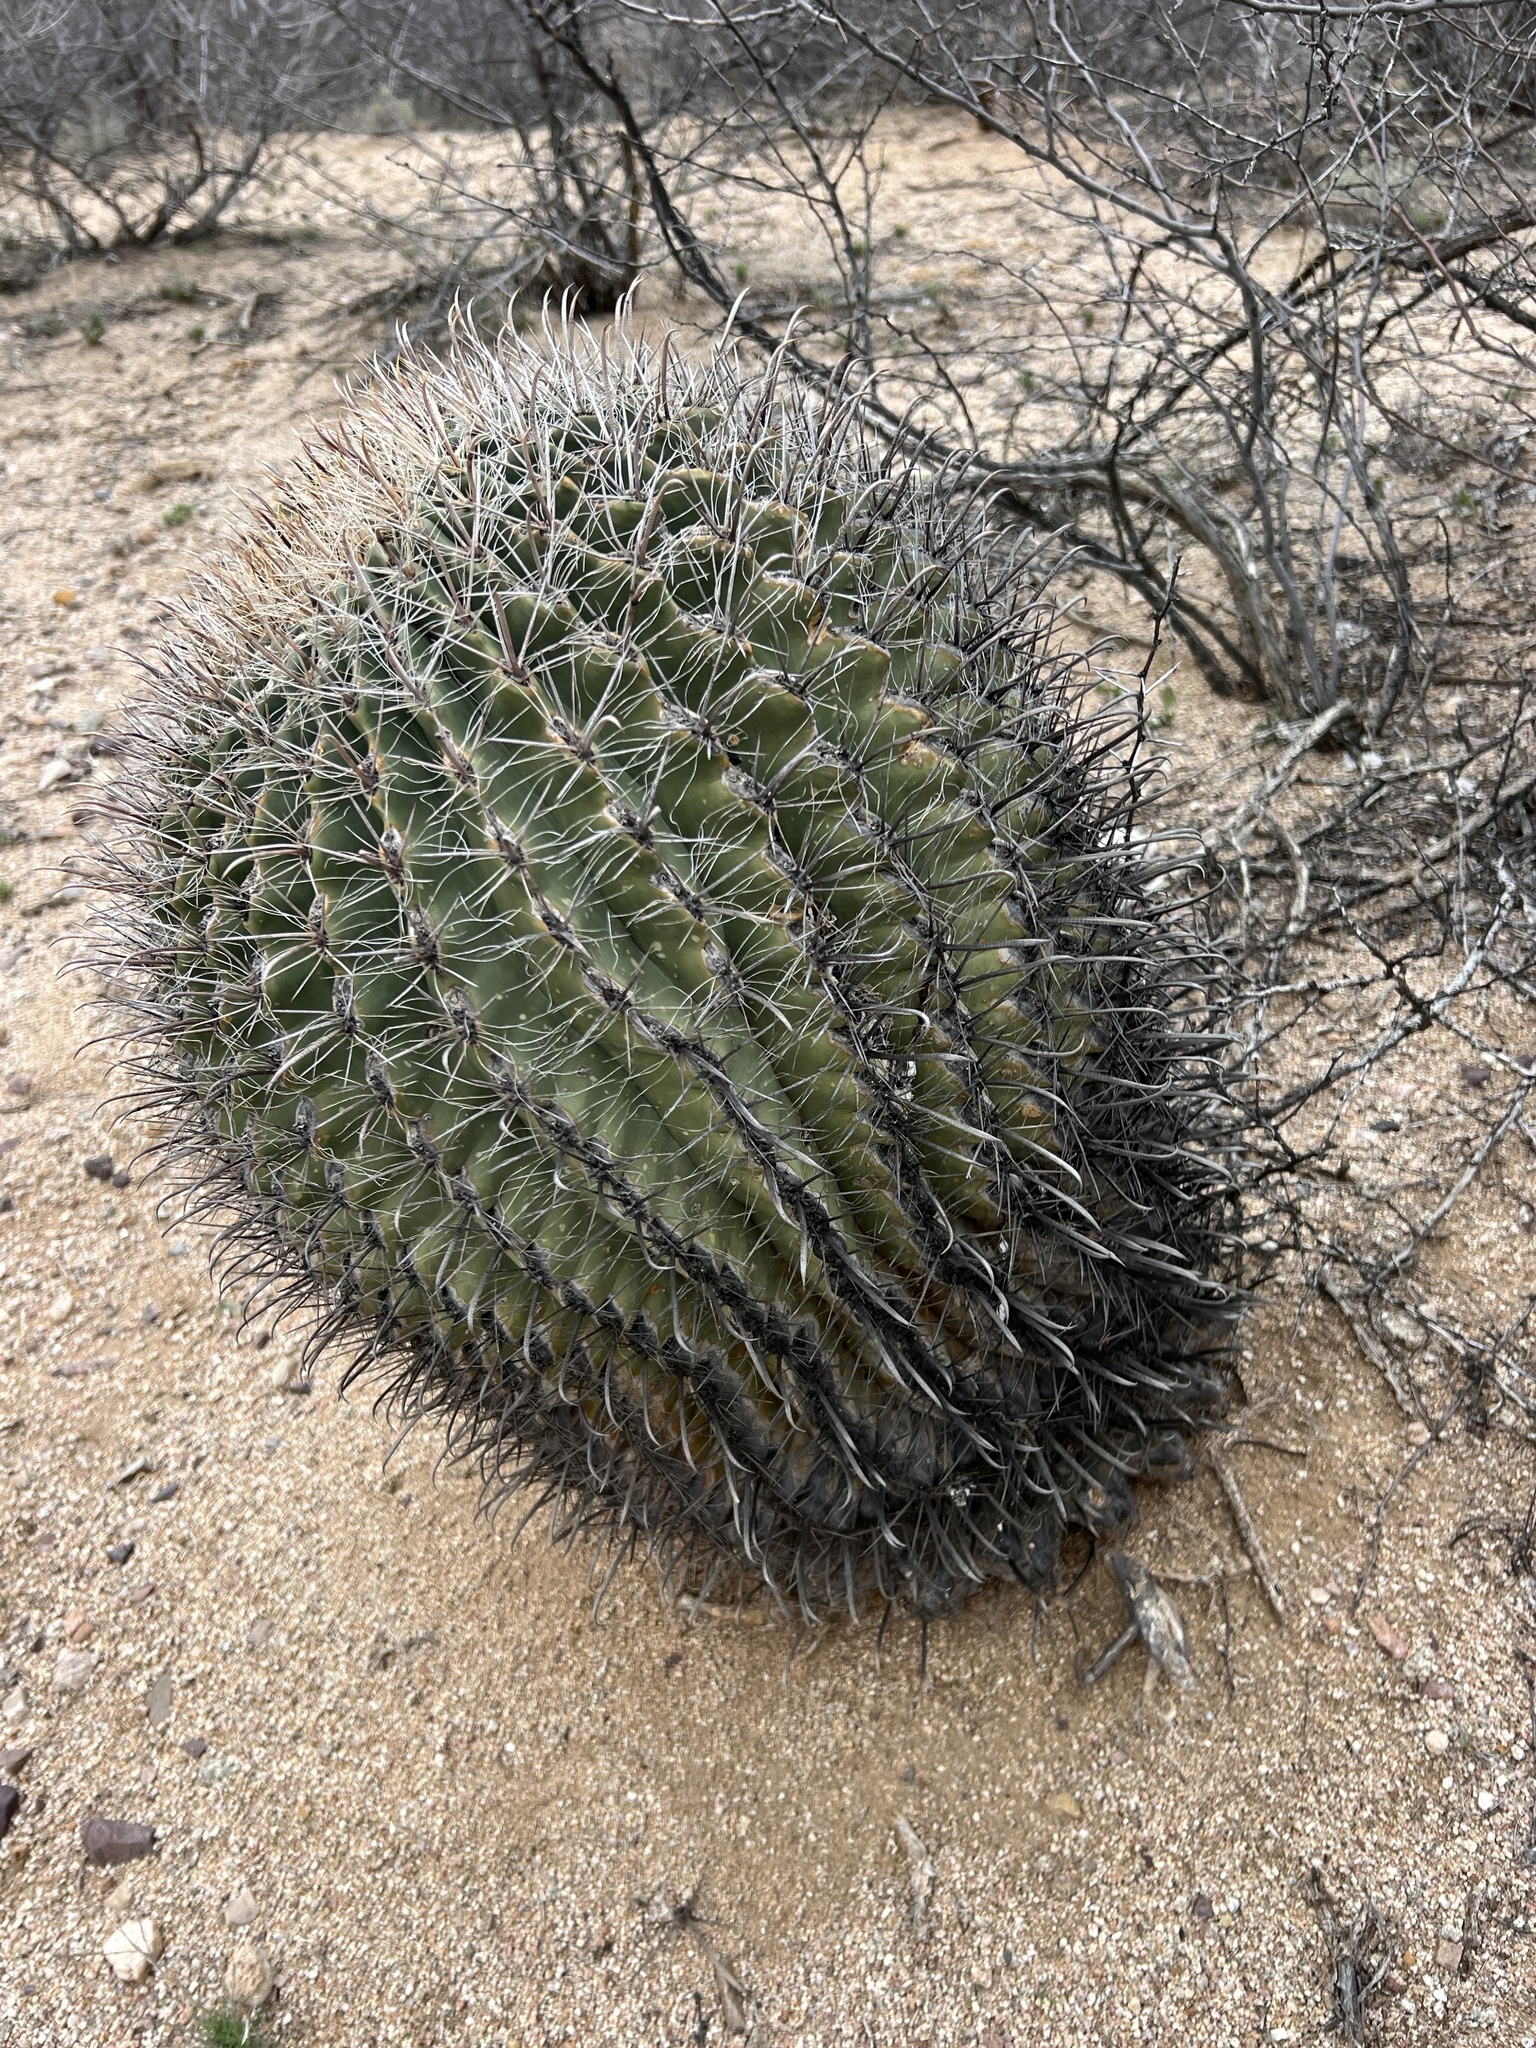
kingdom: Plantae
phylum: Tracheophyta
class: Magnoliopsida
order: Caryophyllales
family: Cactaceae
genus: Ferocactus
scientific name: Ferocactus wislizeni
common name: Candy barrel cactus
